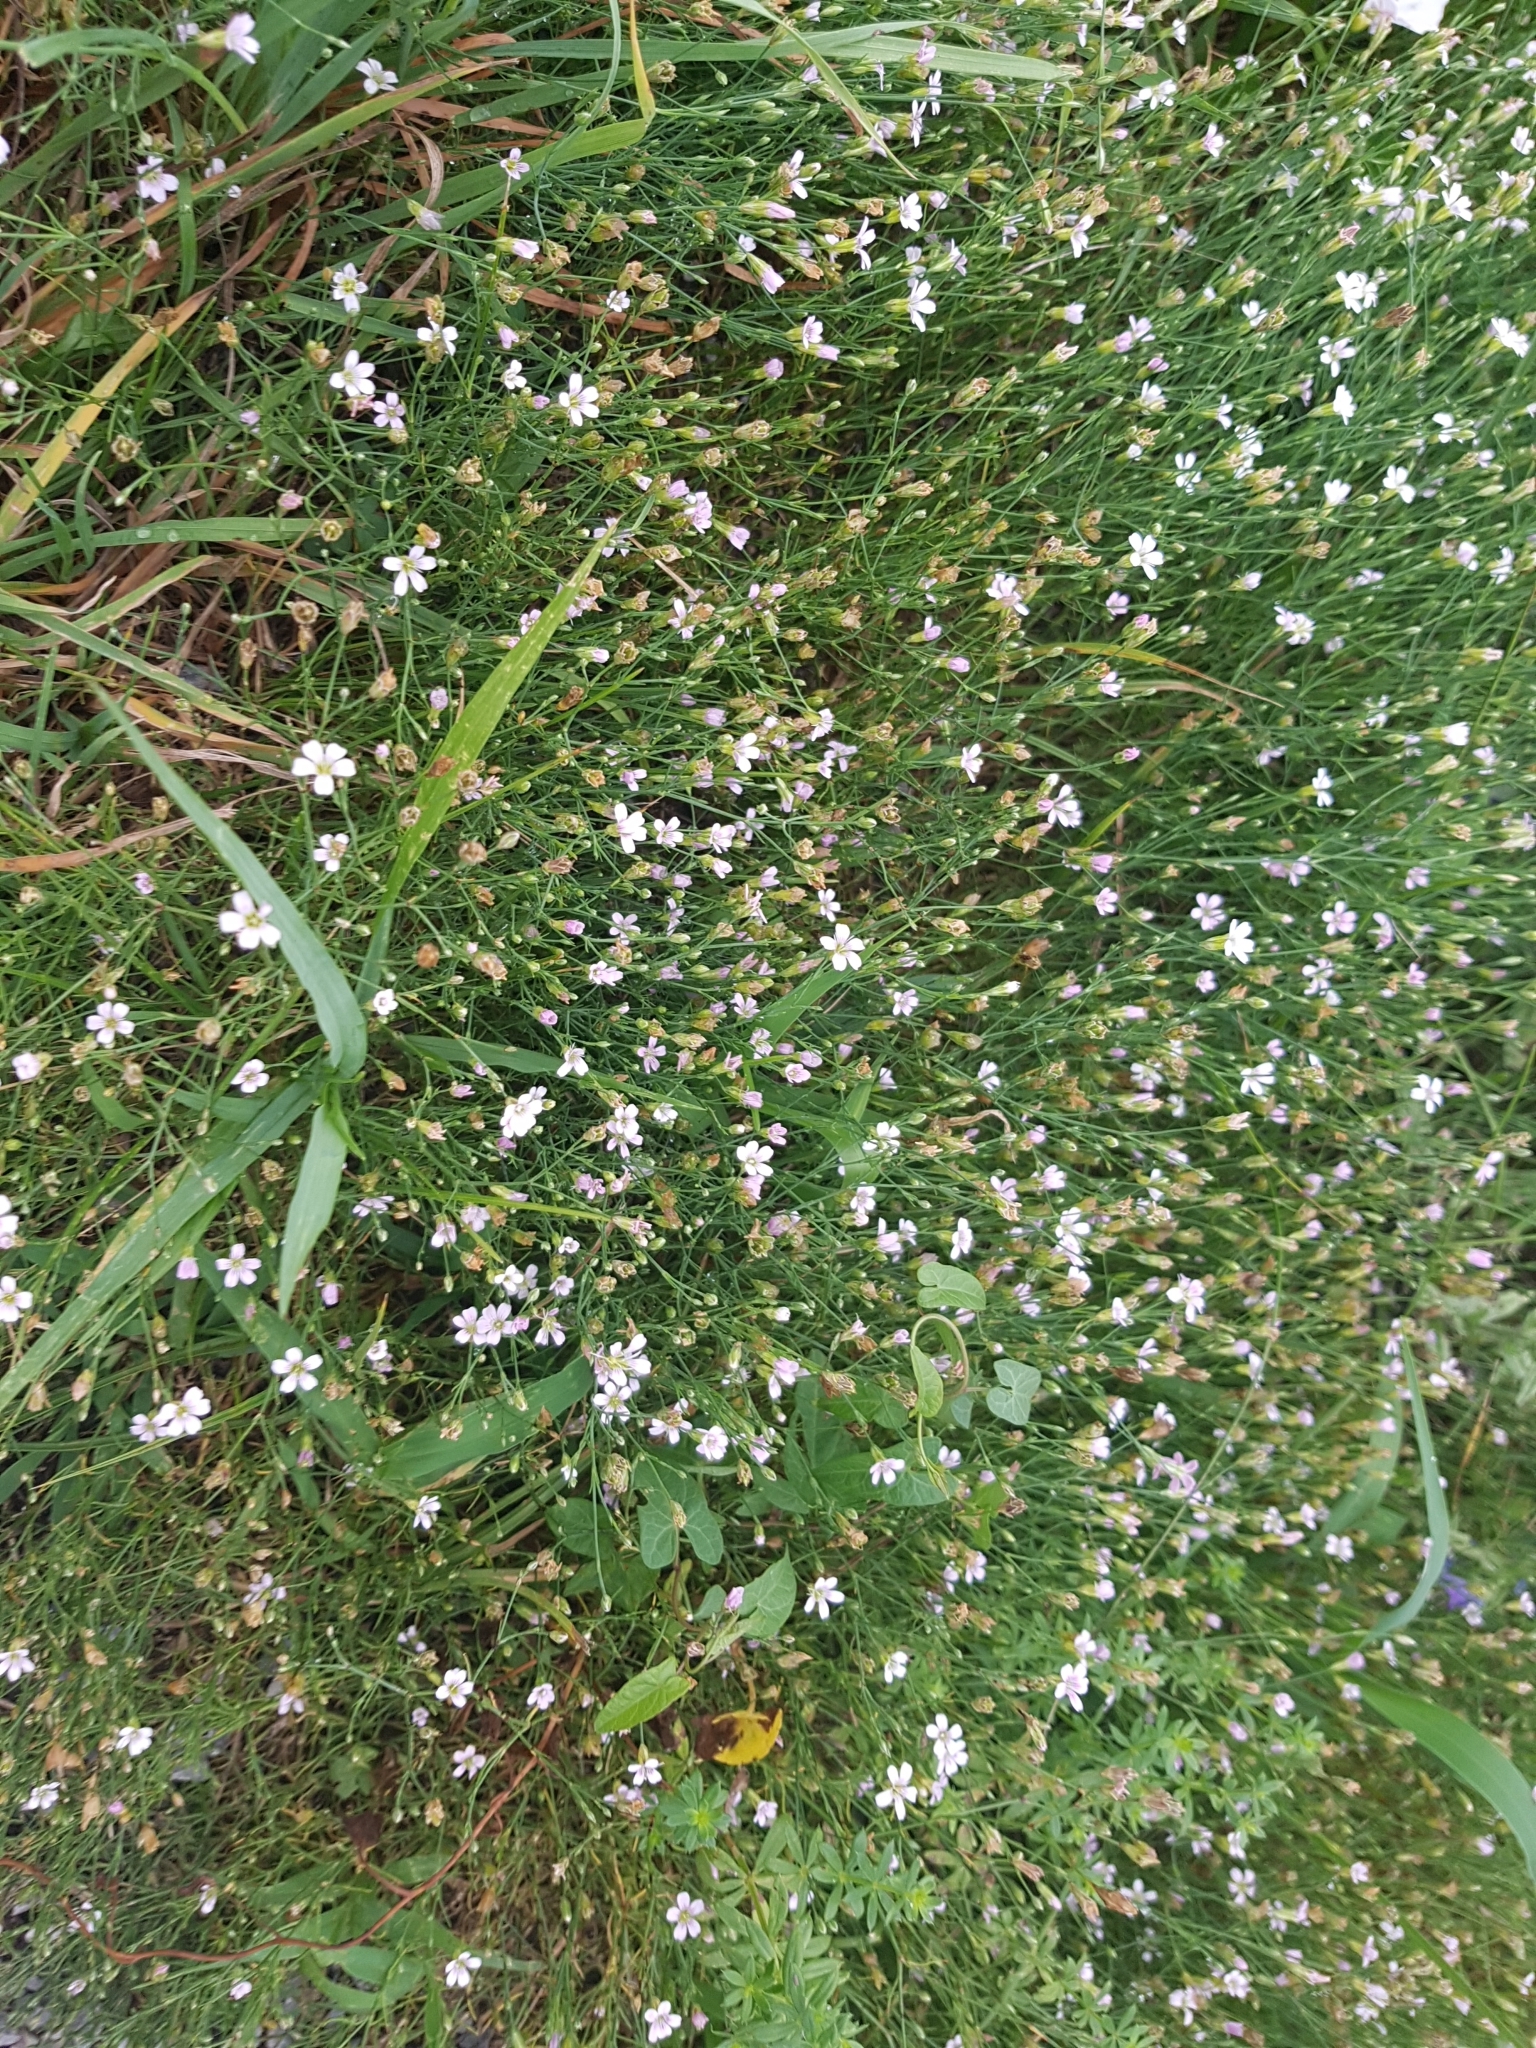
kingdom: Plantae
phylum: Tracheophyta
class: Magnoliopsida
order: Caryophyllales
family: Caryophyllaceae
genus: Petrorhagia
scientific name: Petrorhagia saxifraga
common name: Tunicflower
